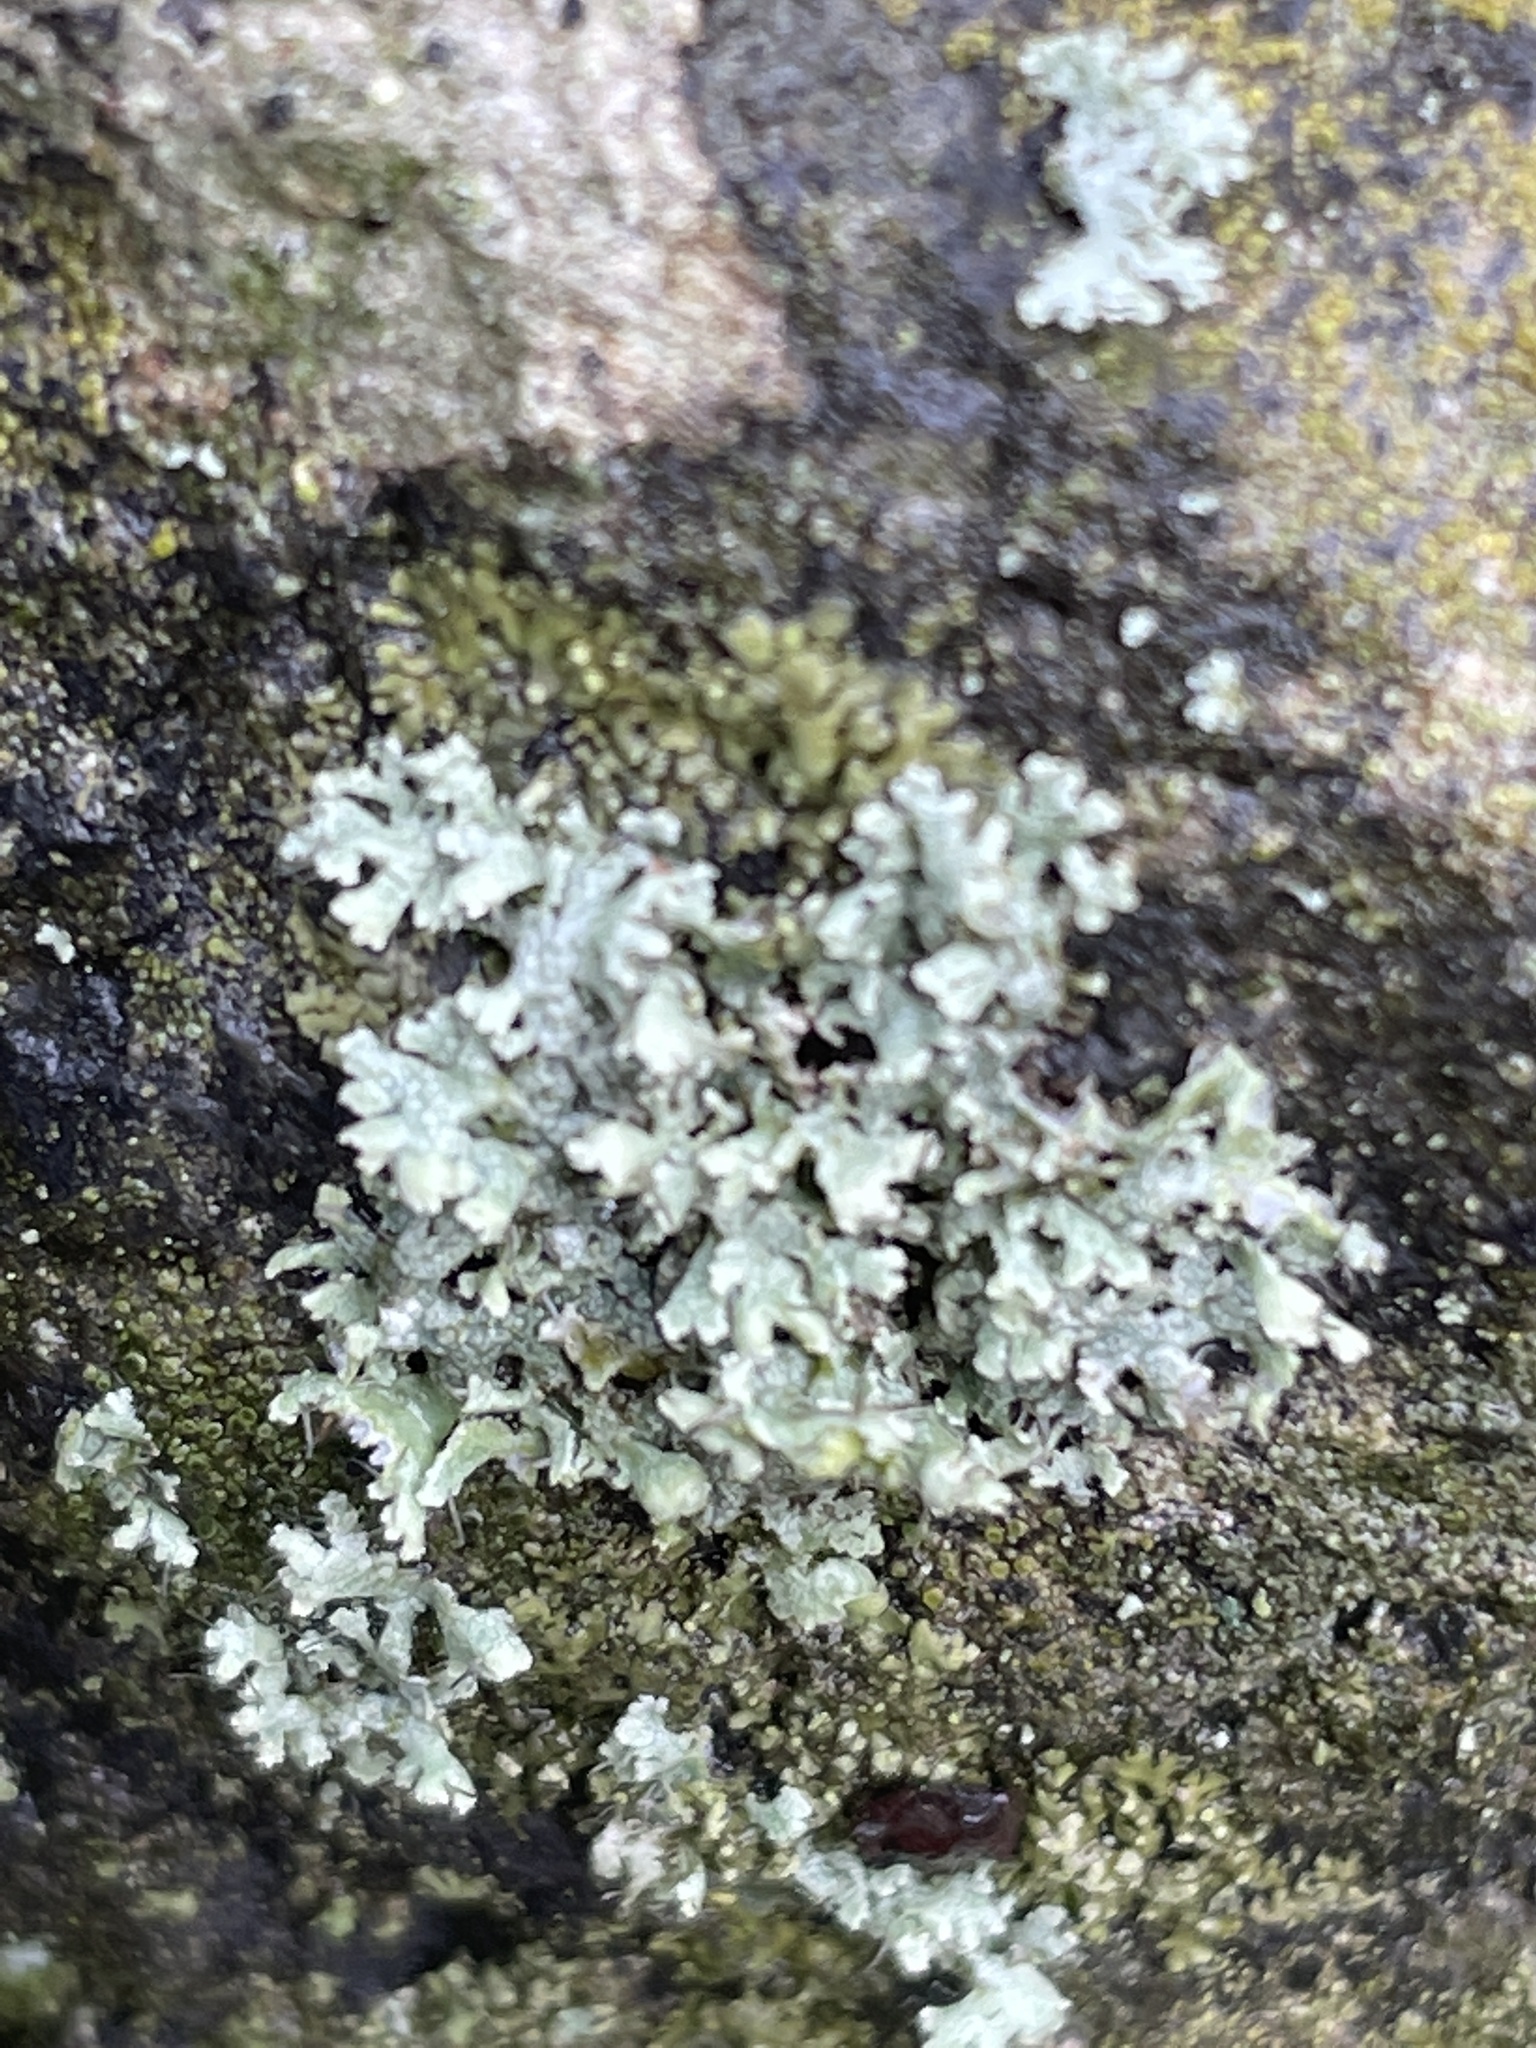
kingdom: Fungi
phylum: Ascomycota
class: Lecanoromycetes
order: Caliciales
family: Physciaceae
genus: Physcia
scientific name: Physcia adscendens
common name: Hooded rosette lichen
